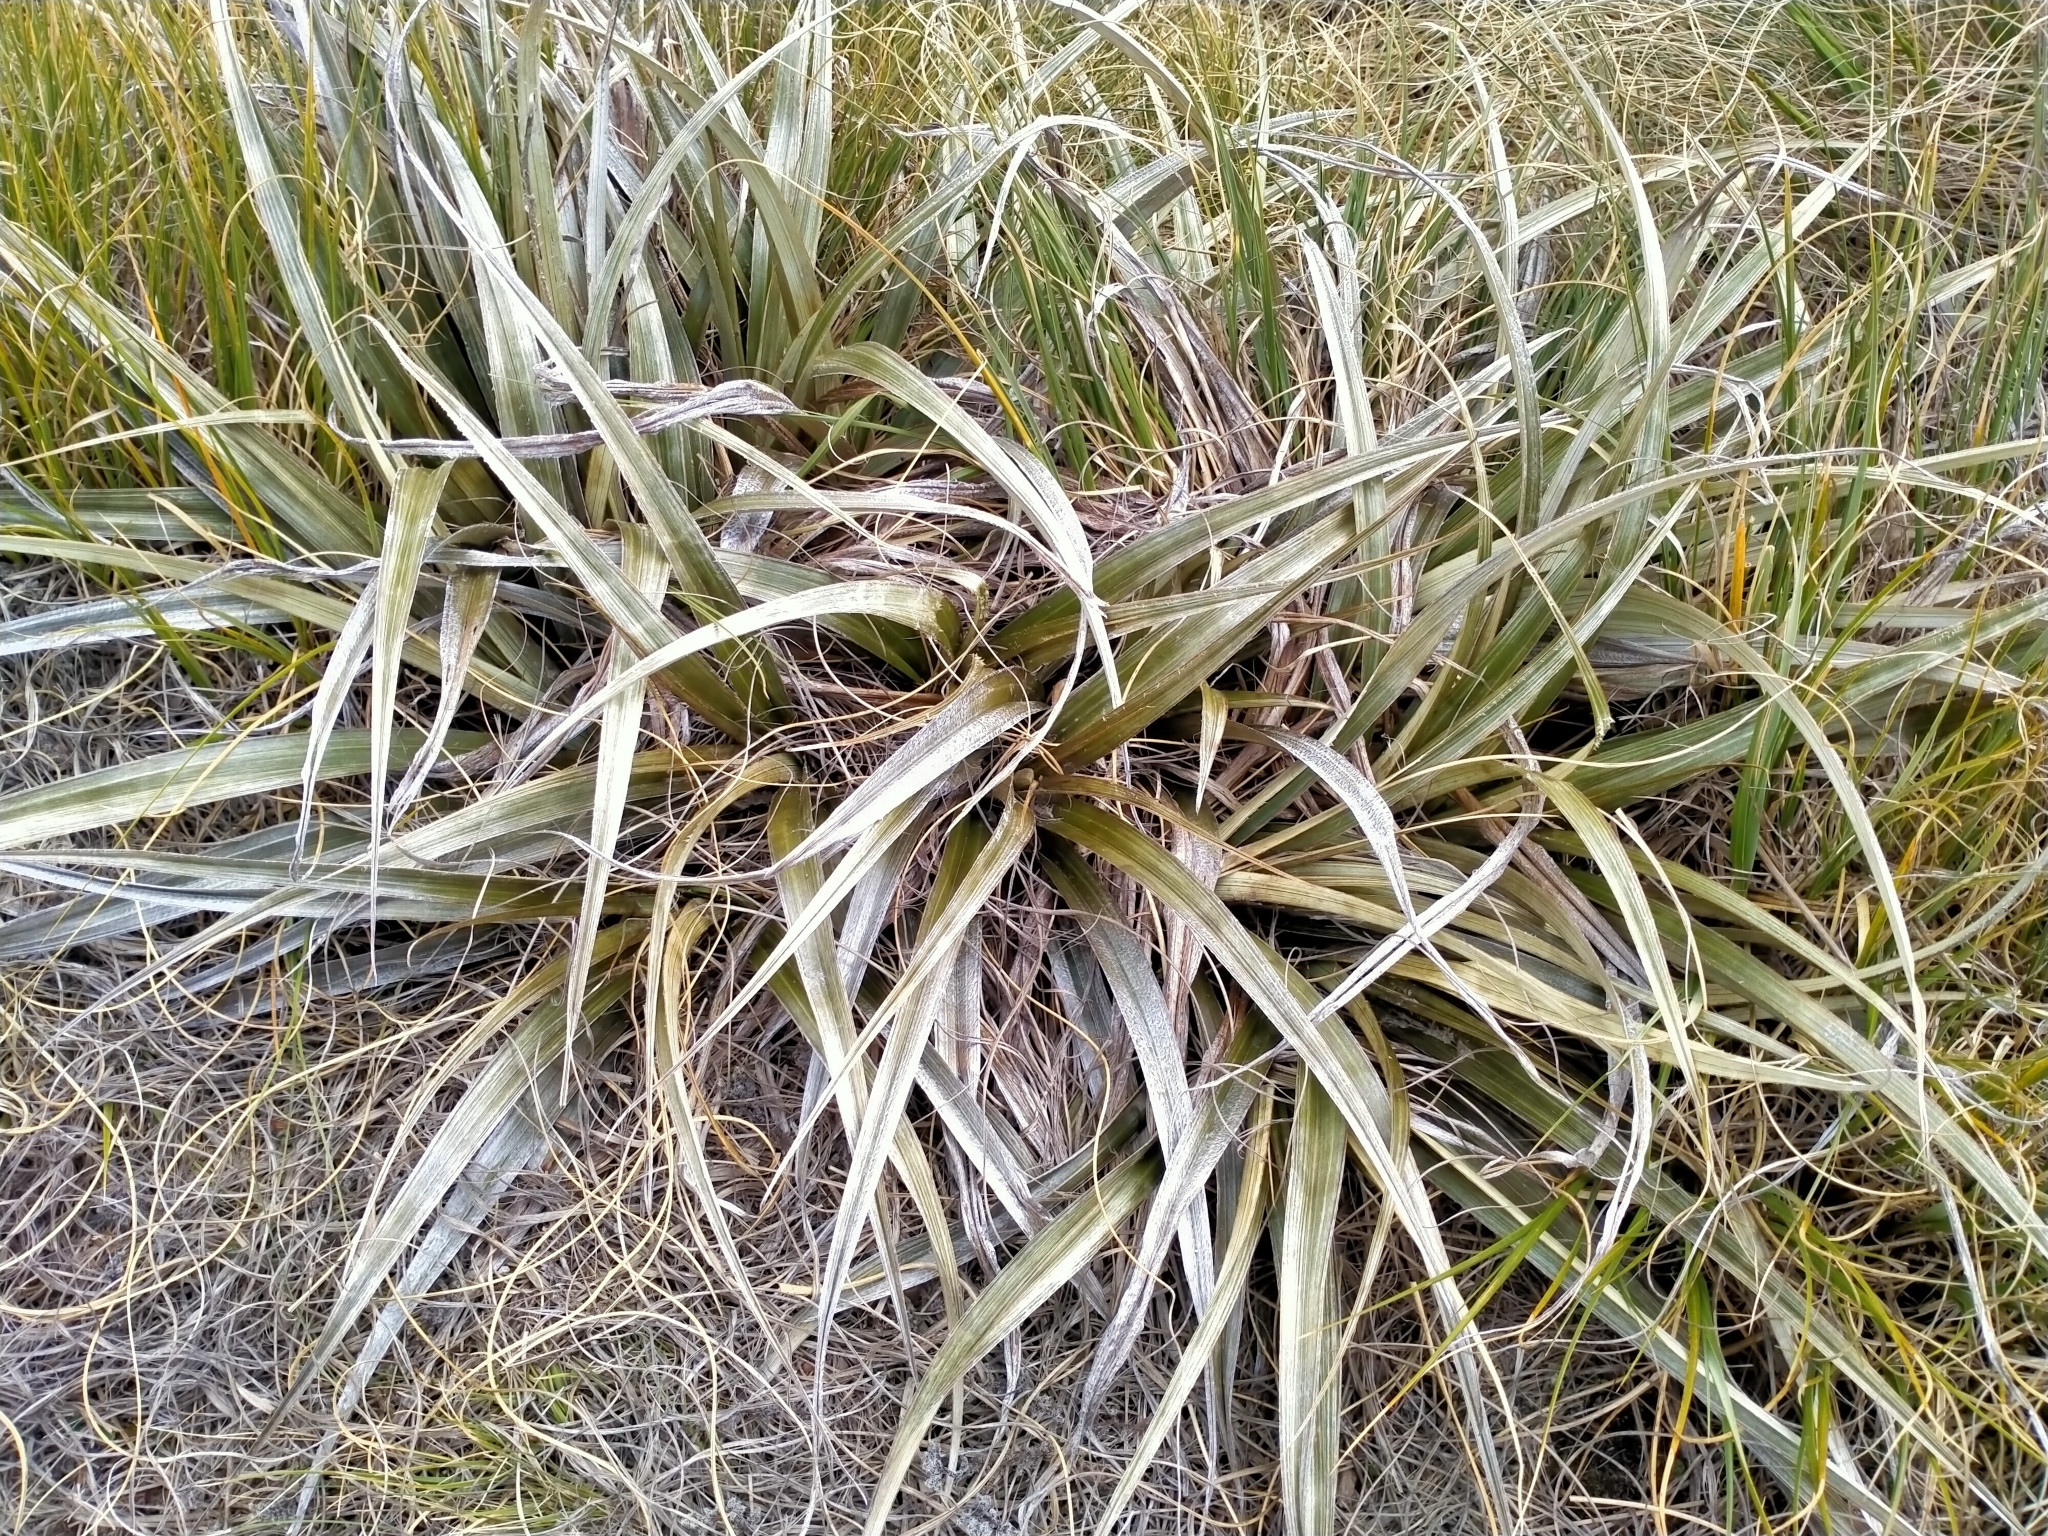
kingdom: Plantae
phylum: Tracheophyta
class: Liliopsida
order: Asparagales
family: Asteliaceae
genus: Astelia
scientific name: Astelia nivicola
